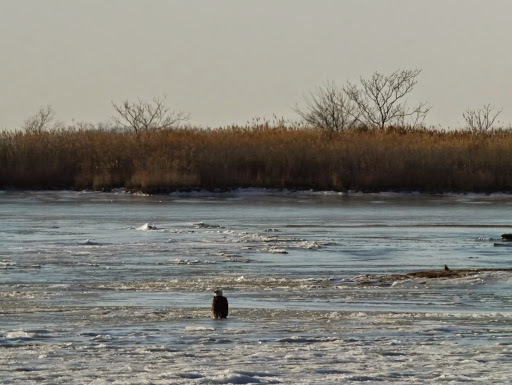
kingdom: Animalia
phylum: Chordata
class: Aves
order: Accipitriformes
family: Accipitridae
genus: Haliaeetus
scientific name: Haliaeetus leucocephalus
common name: Bald eagle
